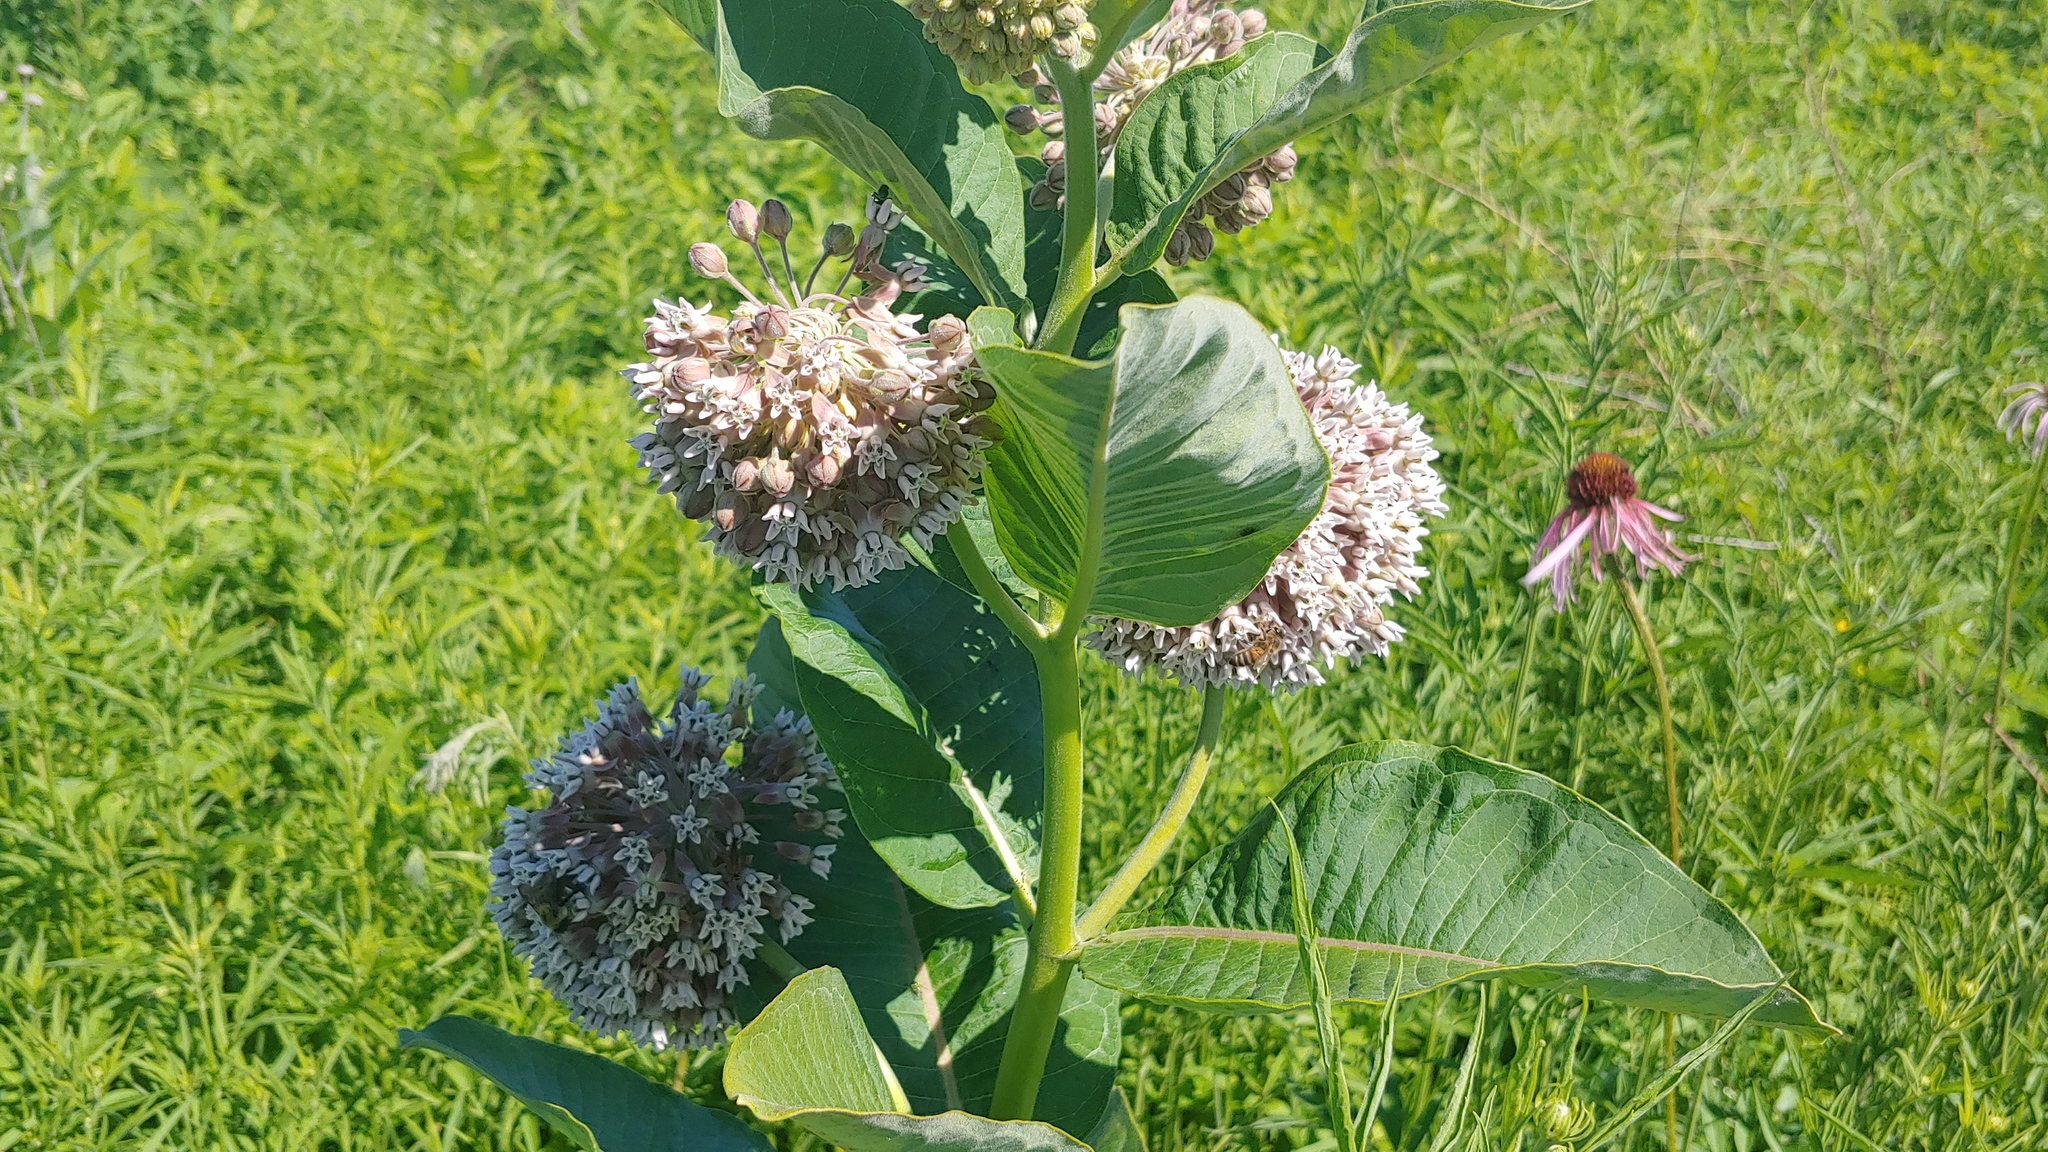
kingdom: Plantae
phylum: Tracheophyta
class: Magnoliopsida
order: Gentianales
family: Apocynaceae
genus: Asclepias
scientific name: Asclepias syriaca
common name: Common milkweed
